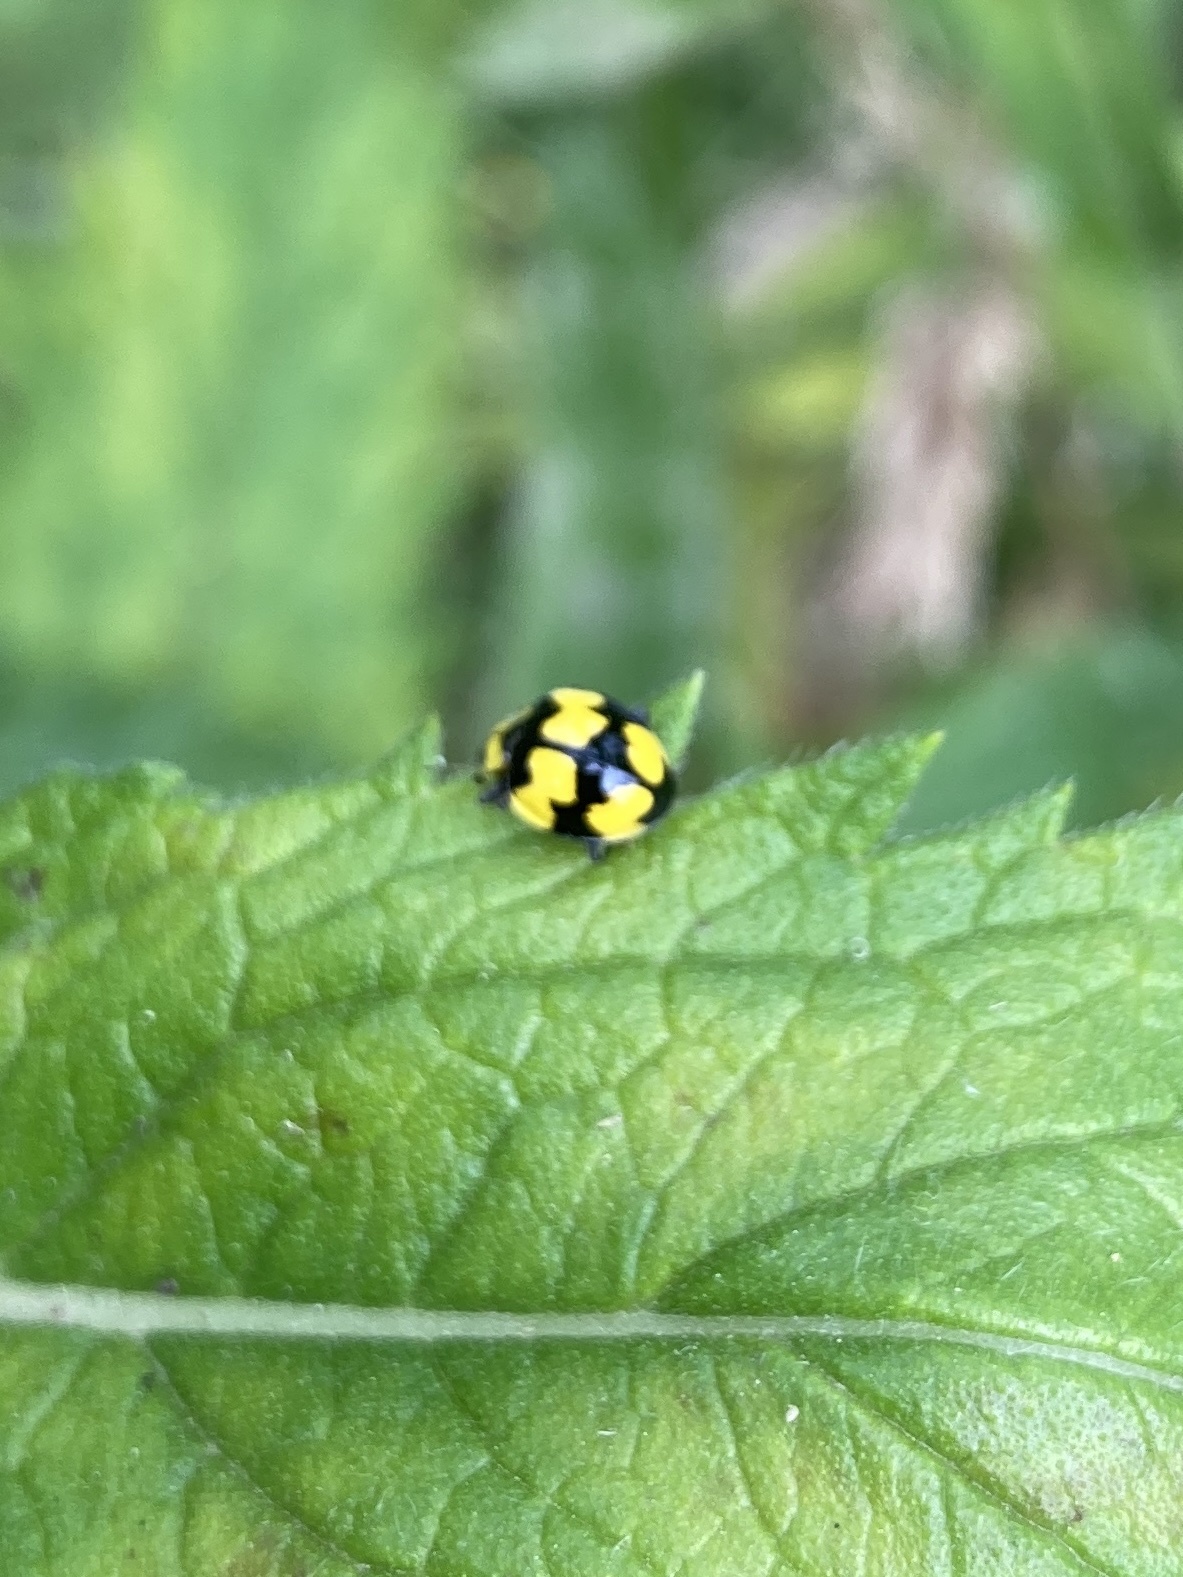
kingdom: Animalia
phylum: Arthropoda
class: Insecta
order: Coleoptera
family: Coccinellidae
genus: Illeis
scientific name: Illeis galbula
